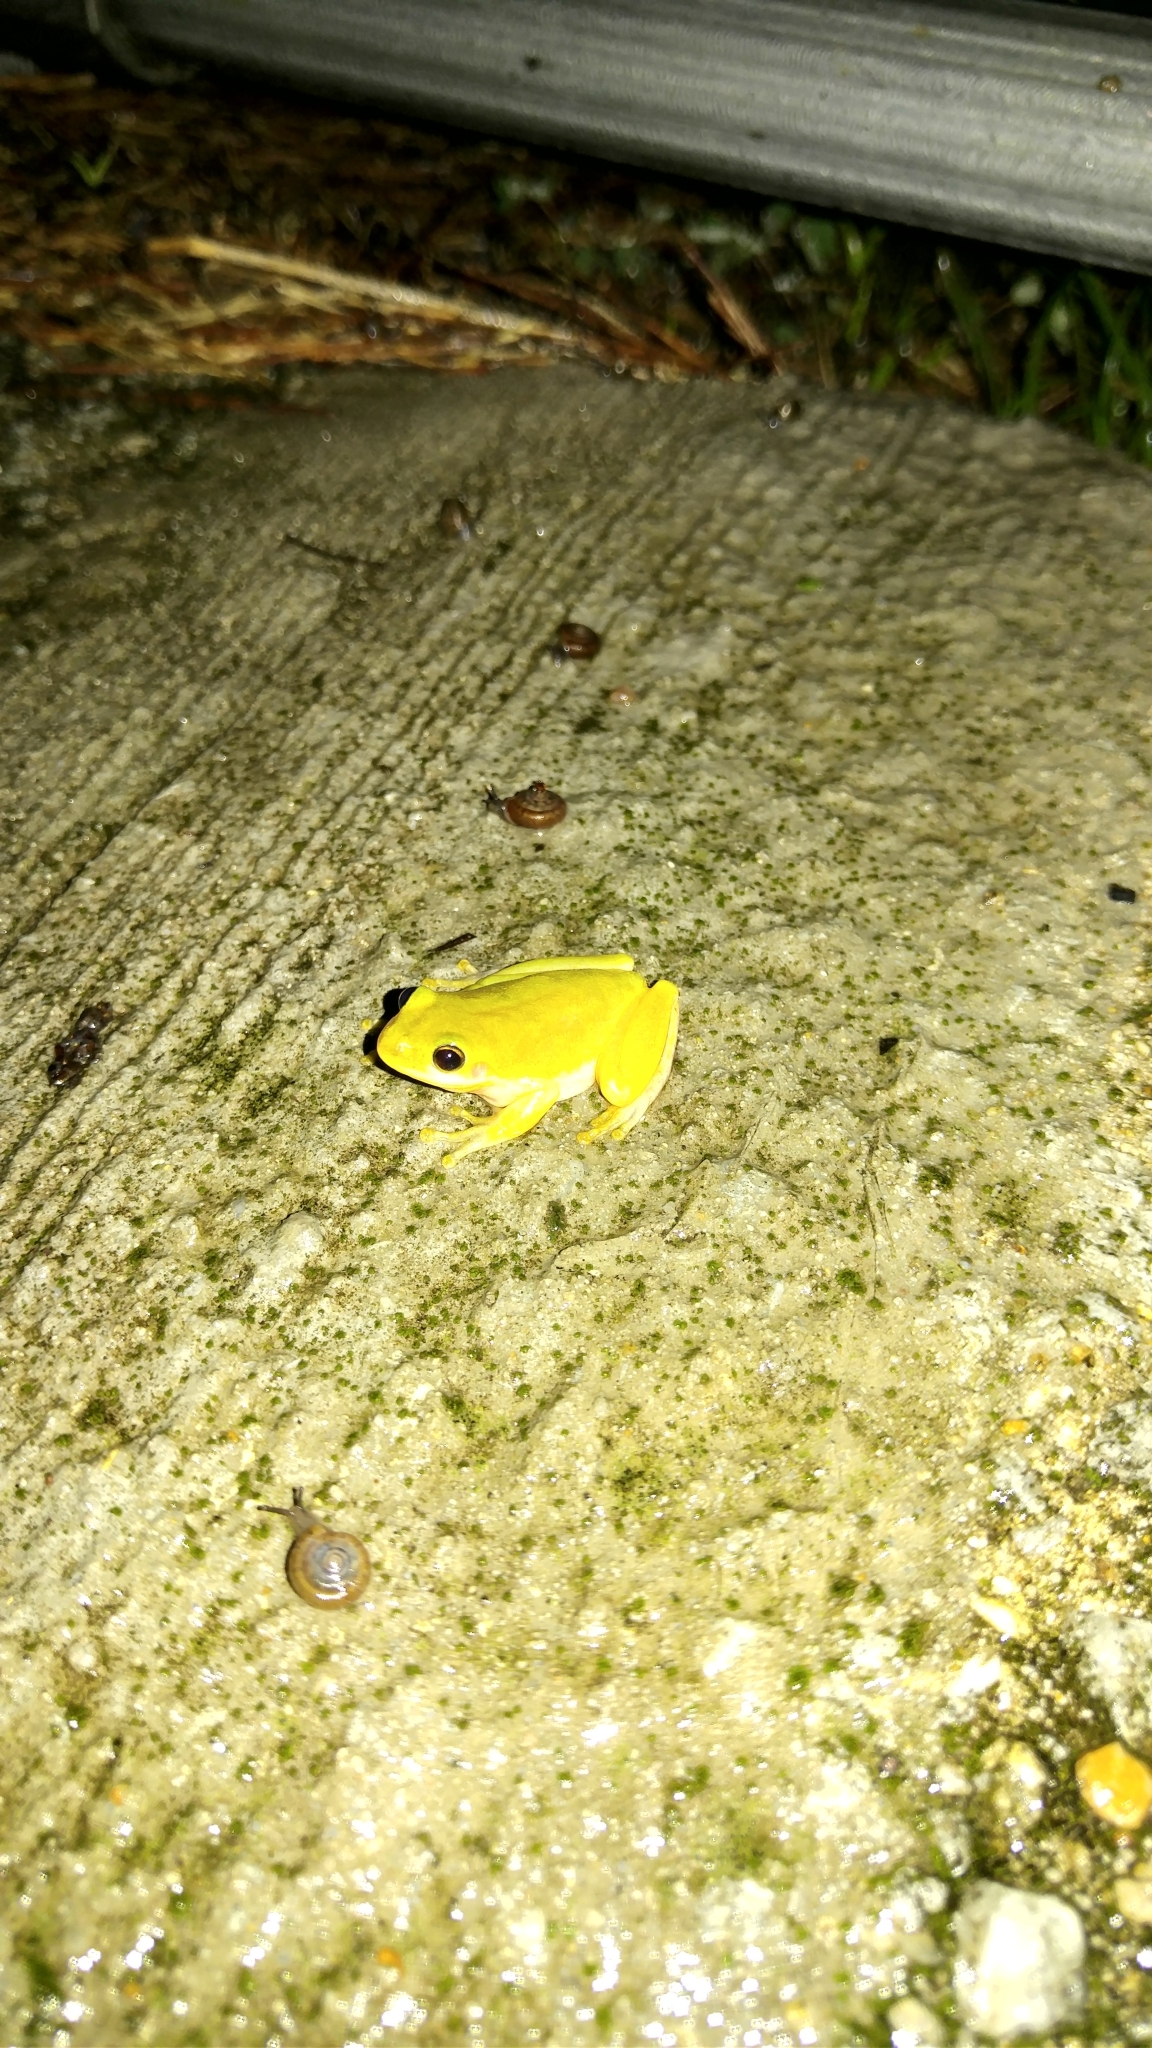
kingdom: Animalia
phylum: Chordata
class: Amphibia
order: Anura
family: Hylidae
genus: Dryophytes
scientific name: Dryophytes squirellus
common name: Squirrel treefrog
